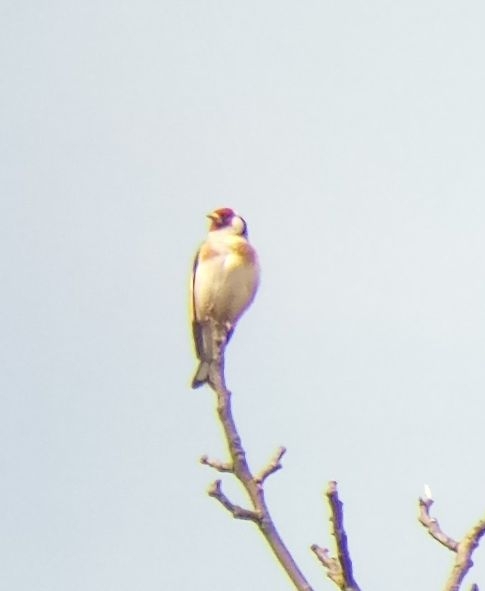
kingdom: Animalia
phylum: Chordata
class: Aves
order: Passeriformes
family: Fringillidae
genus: Carduelis
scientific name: Carduelis carduelis
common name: European goldfinch
